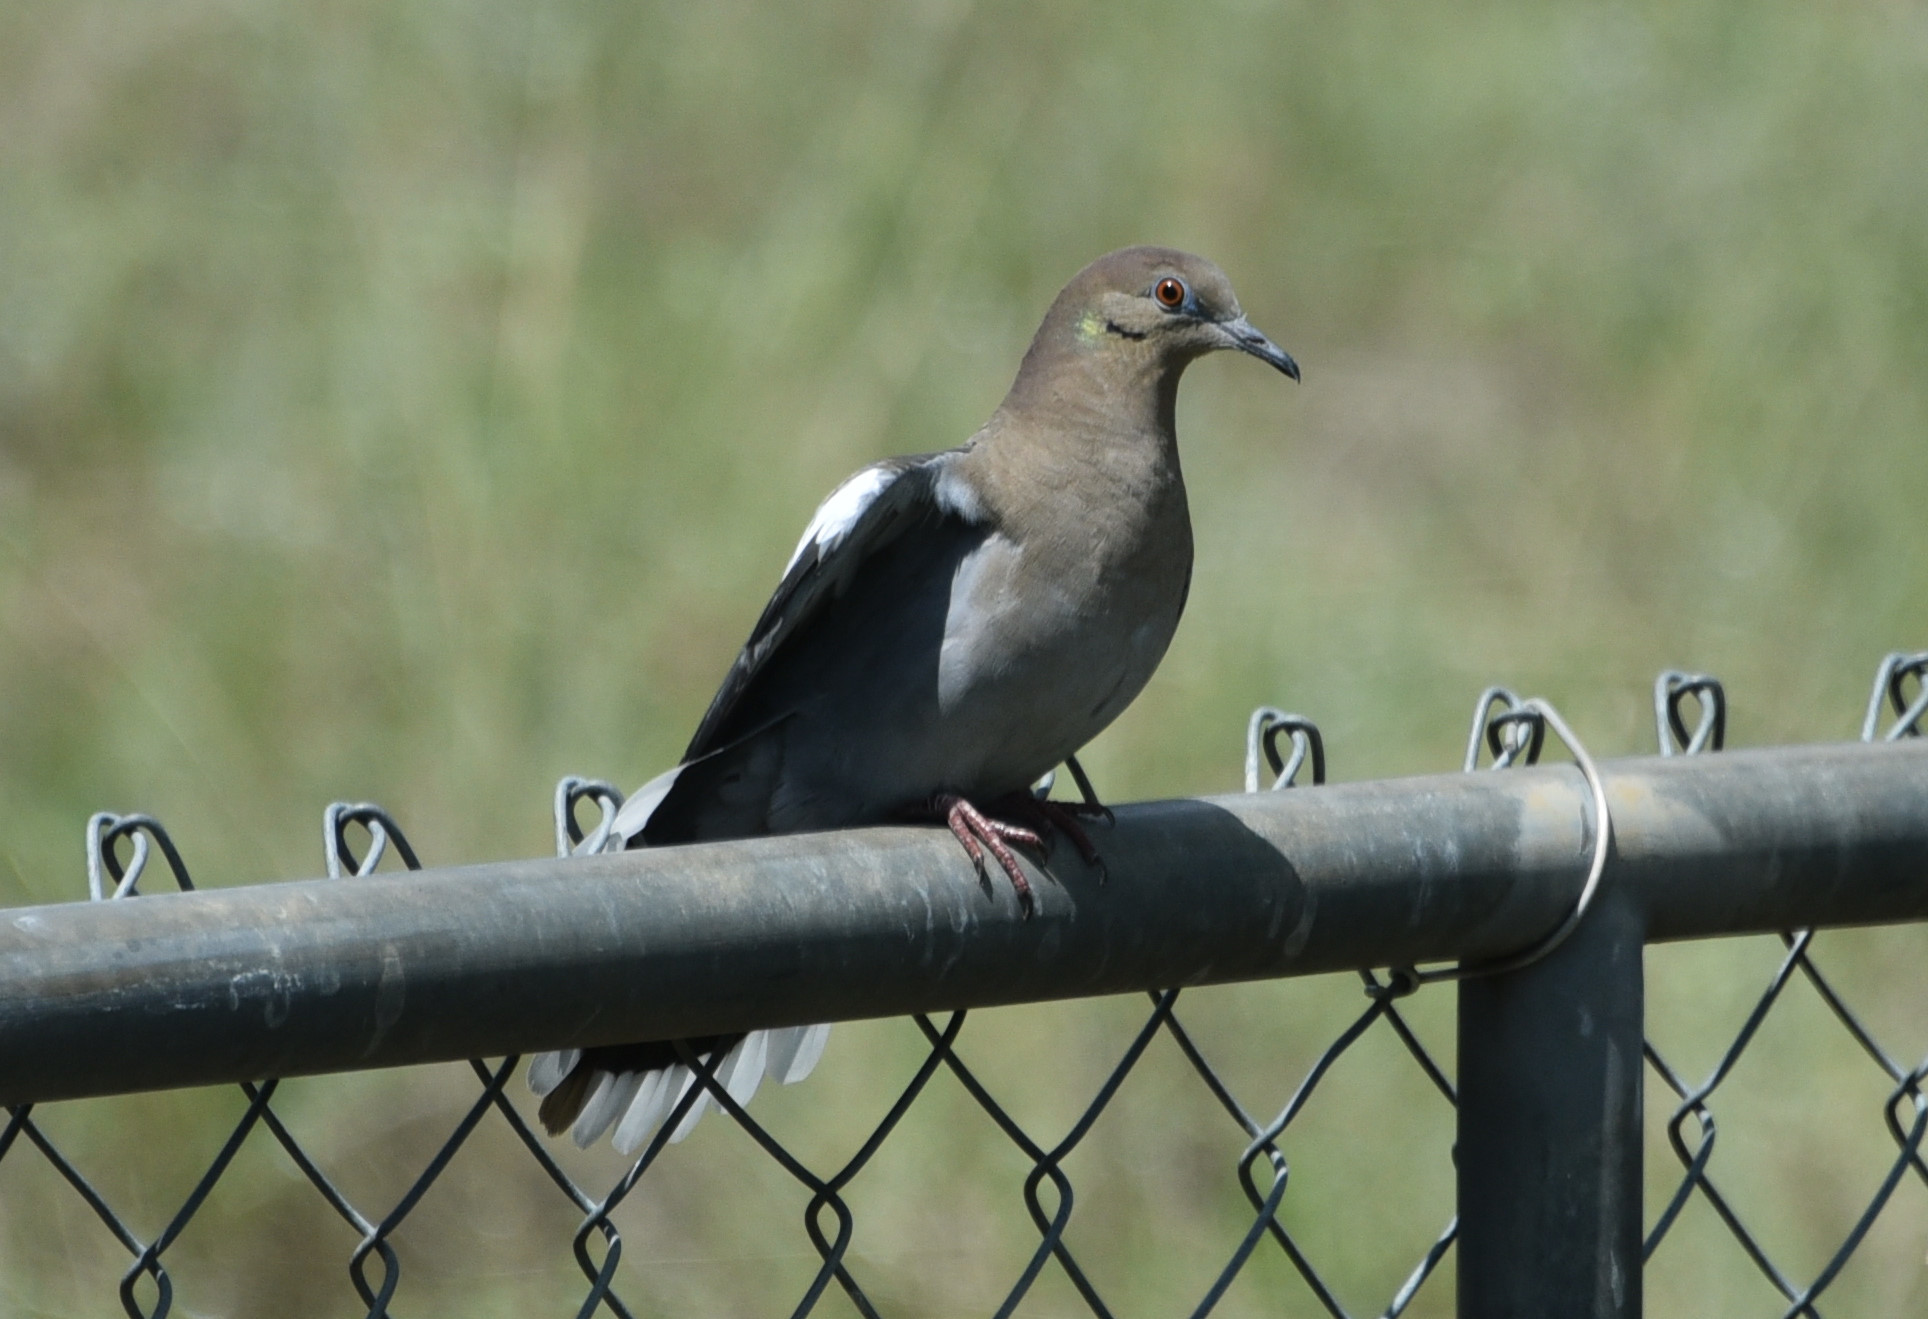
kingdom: Animalia
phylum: Chordata
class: Aves
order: Columbiformes
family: Columbidae
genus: Zenaida
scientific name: Zenaida asiatica
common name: White-winged dove
